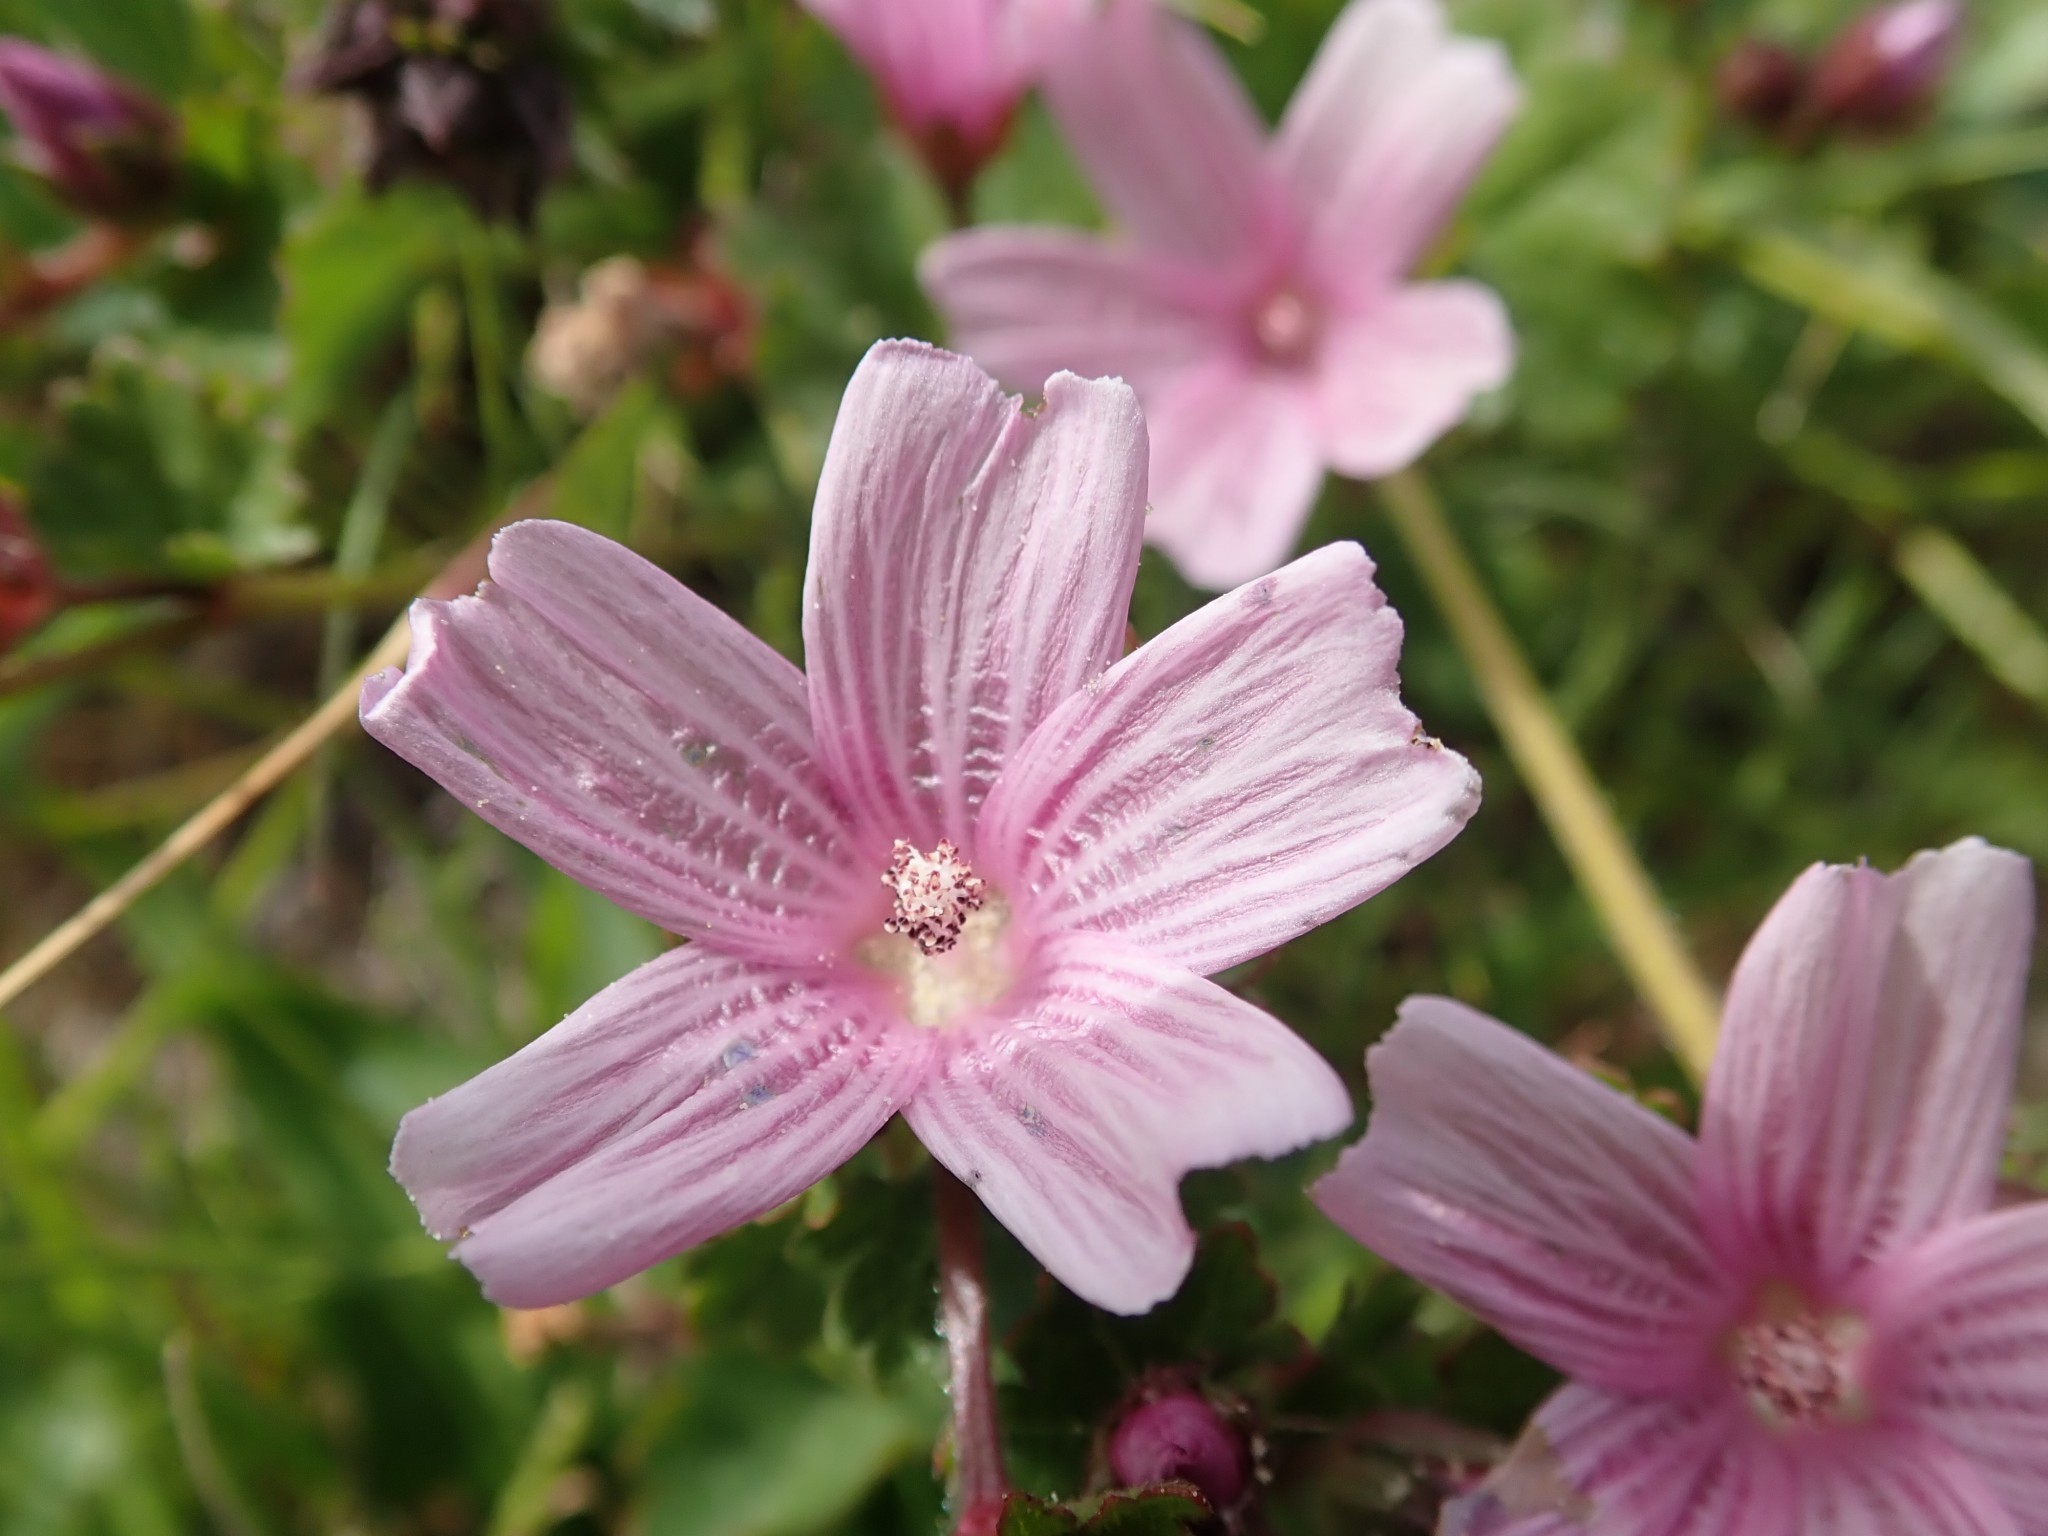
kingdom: Plantae
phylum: Tracheophyta
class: Magnoliopsida
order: Malvales
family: Malvaceae
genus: Sidalcea
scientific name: Sidalcea malviflora
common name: Greek mallow
